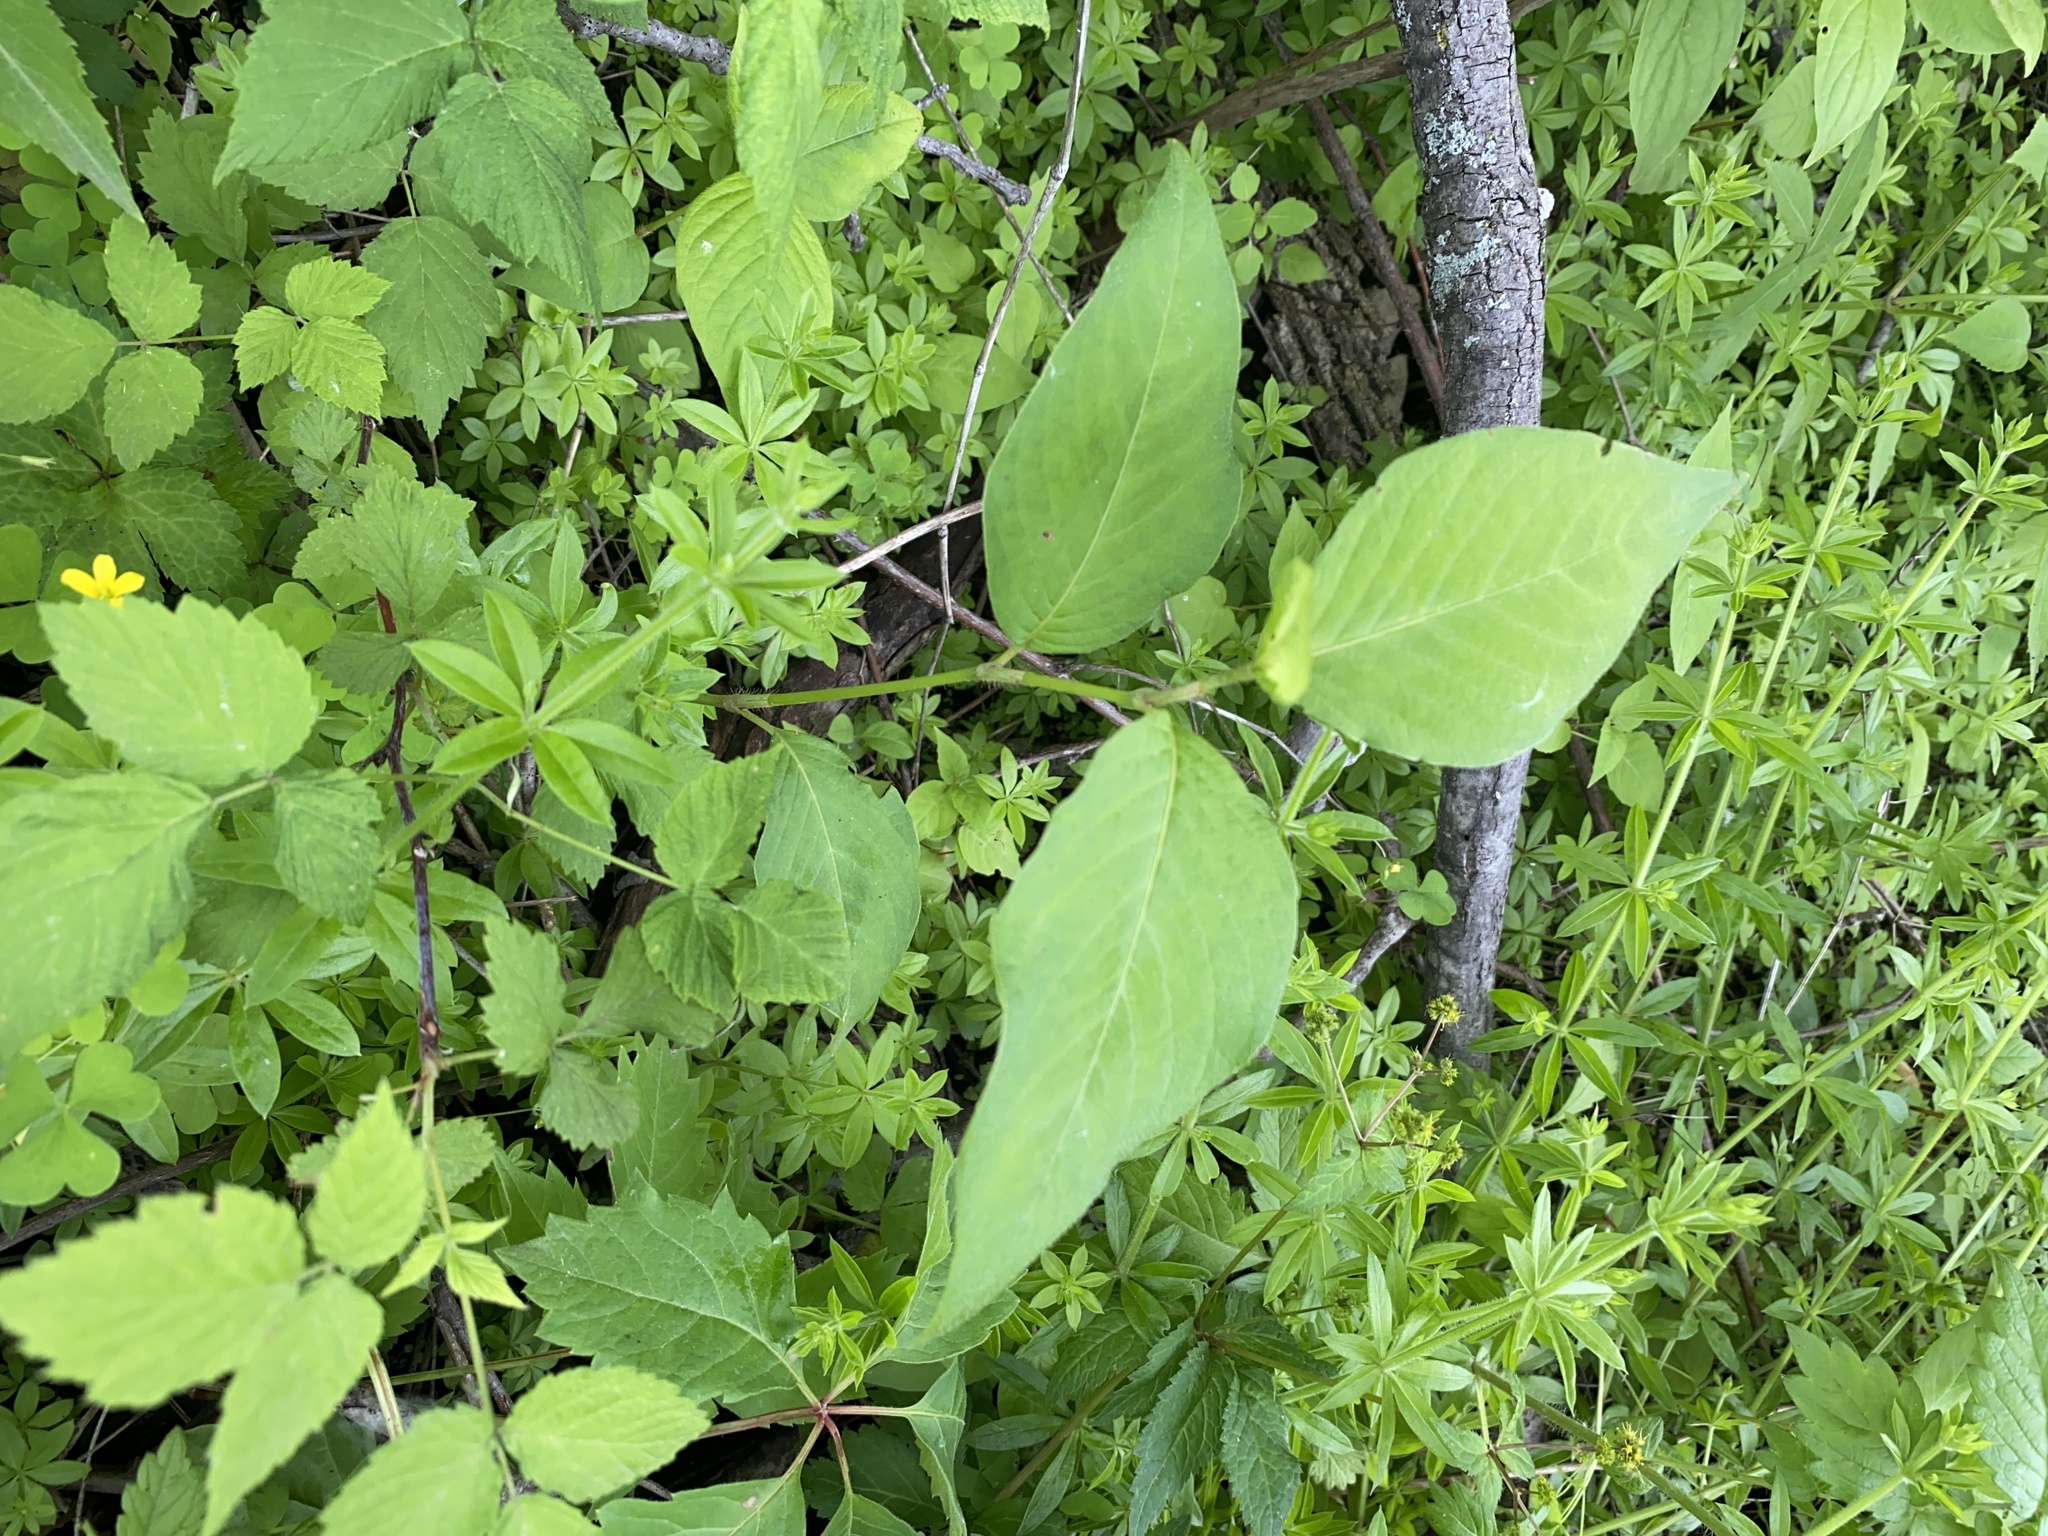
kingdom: Plantae
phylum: Tracheophyta
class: Magnoliopsida
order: Caryophyllales
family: Polygonaceae
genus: Persicaria
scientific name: Persicaria virginiana
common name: Jumpseed
